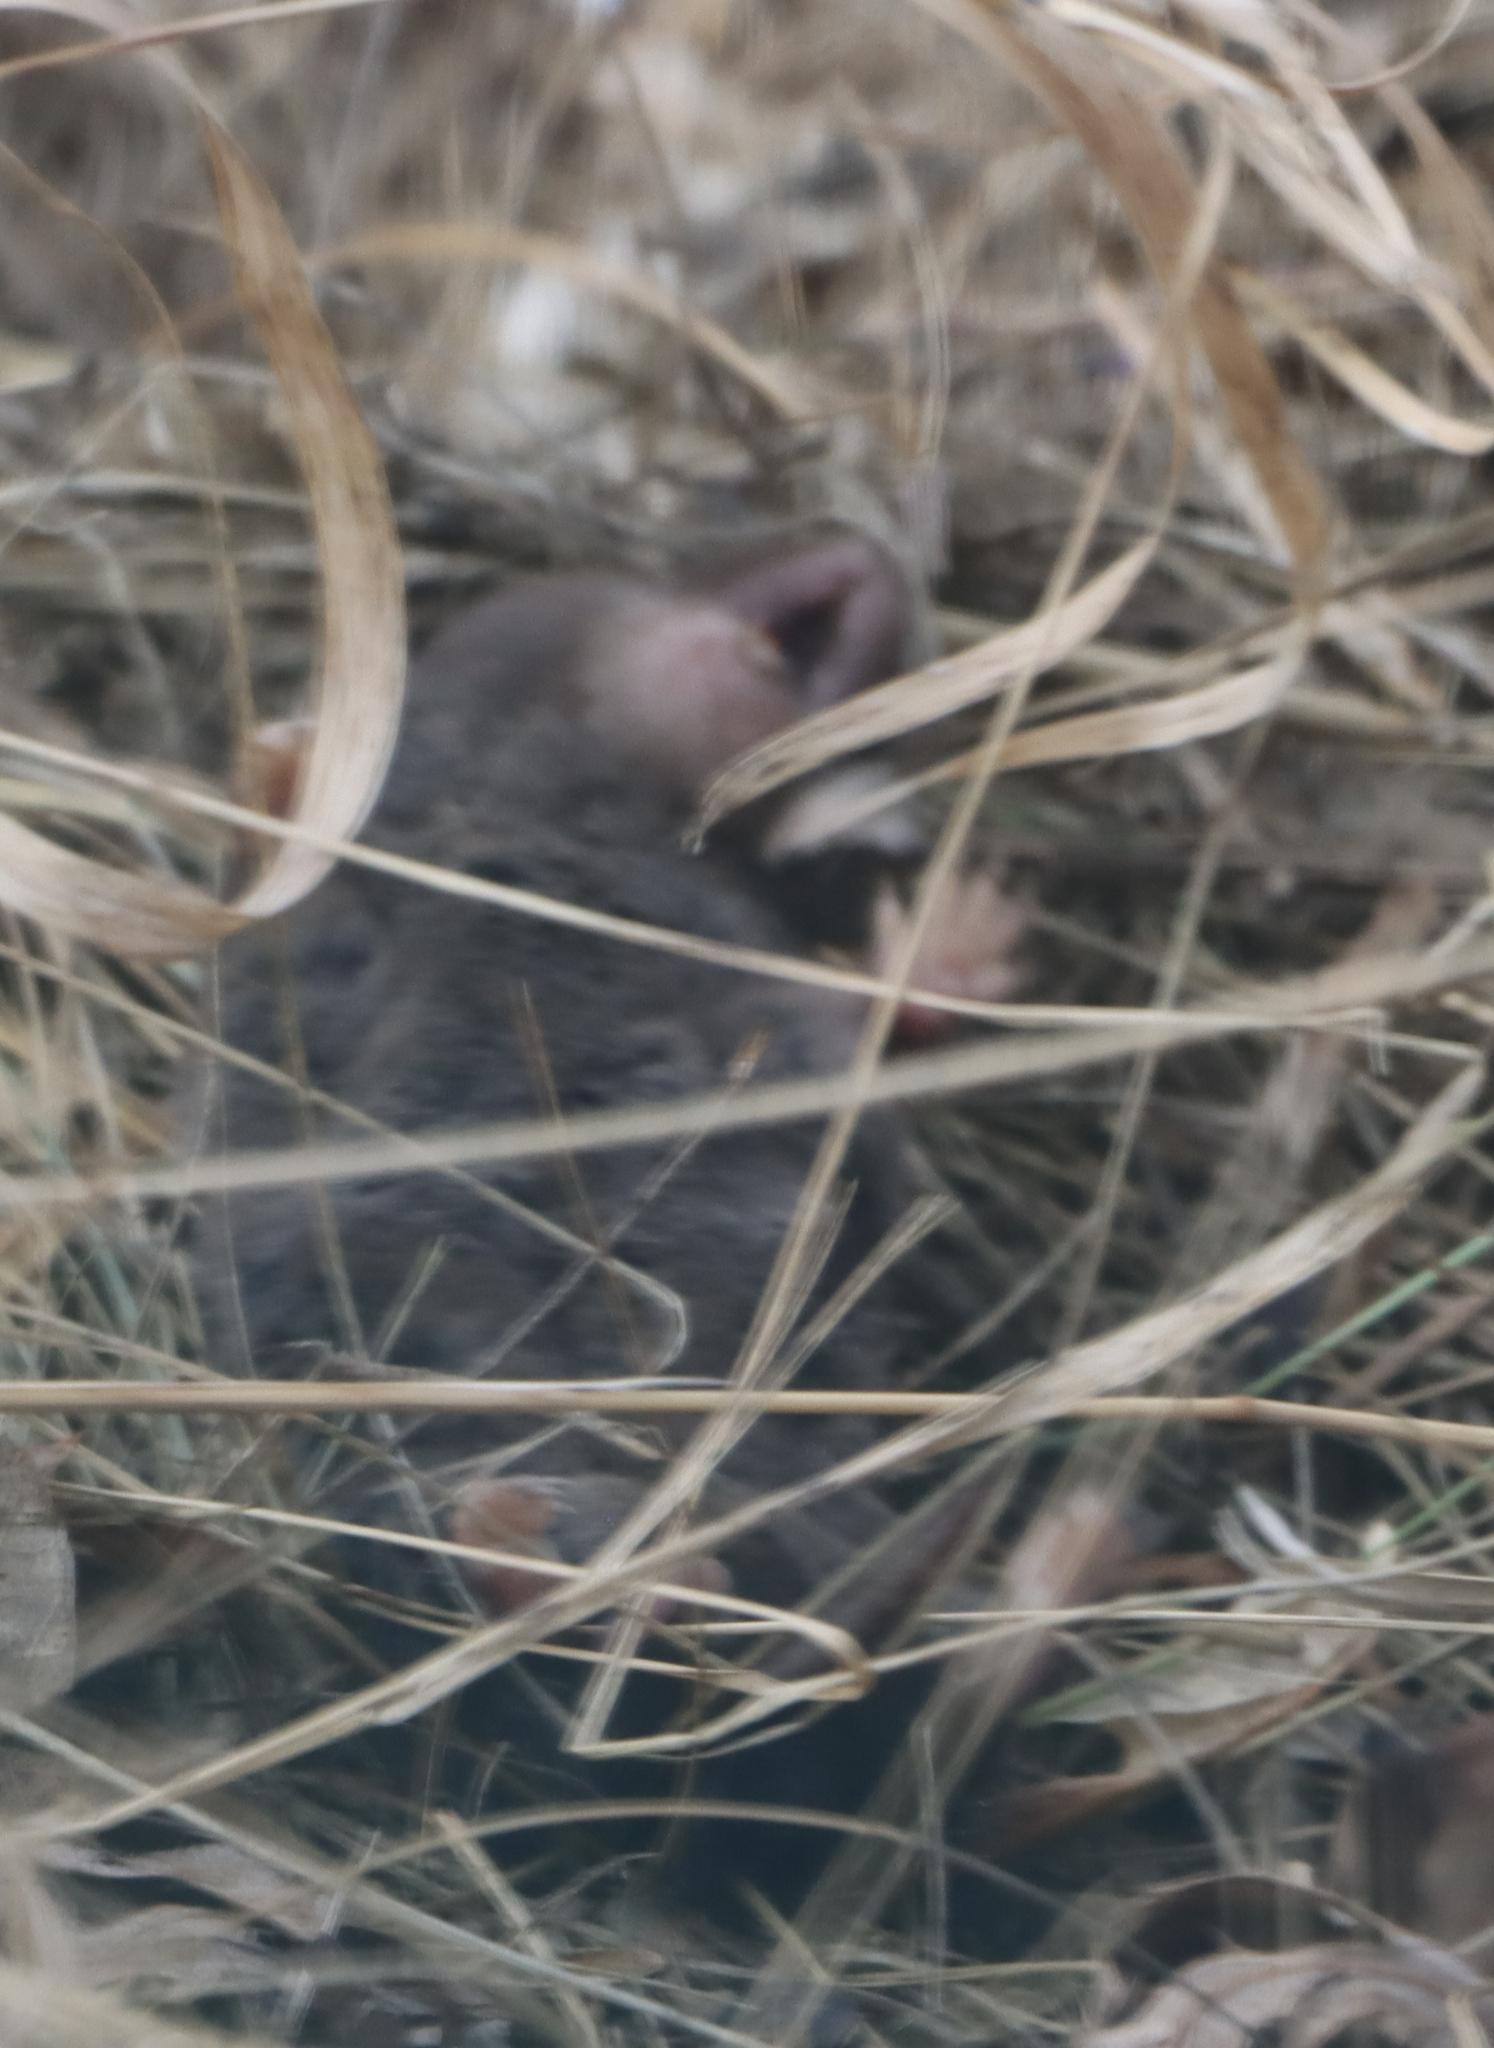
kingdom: Animalia
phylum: Chordata
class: Mammalia
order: Rodentia
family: Cricetidae
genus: Microtus
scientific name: Microtus pennsylvanicus
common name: Meadow vole
